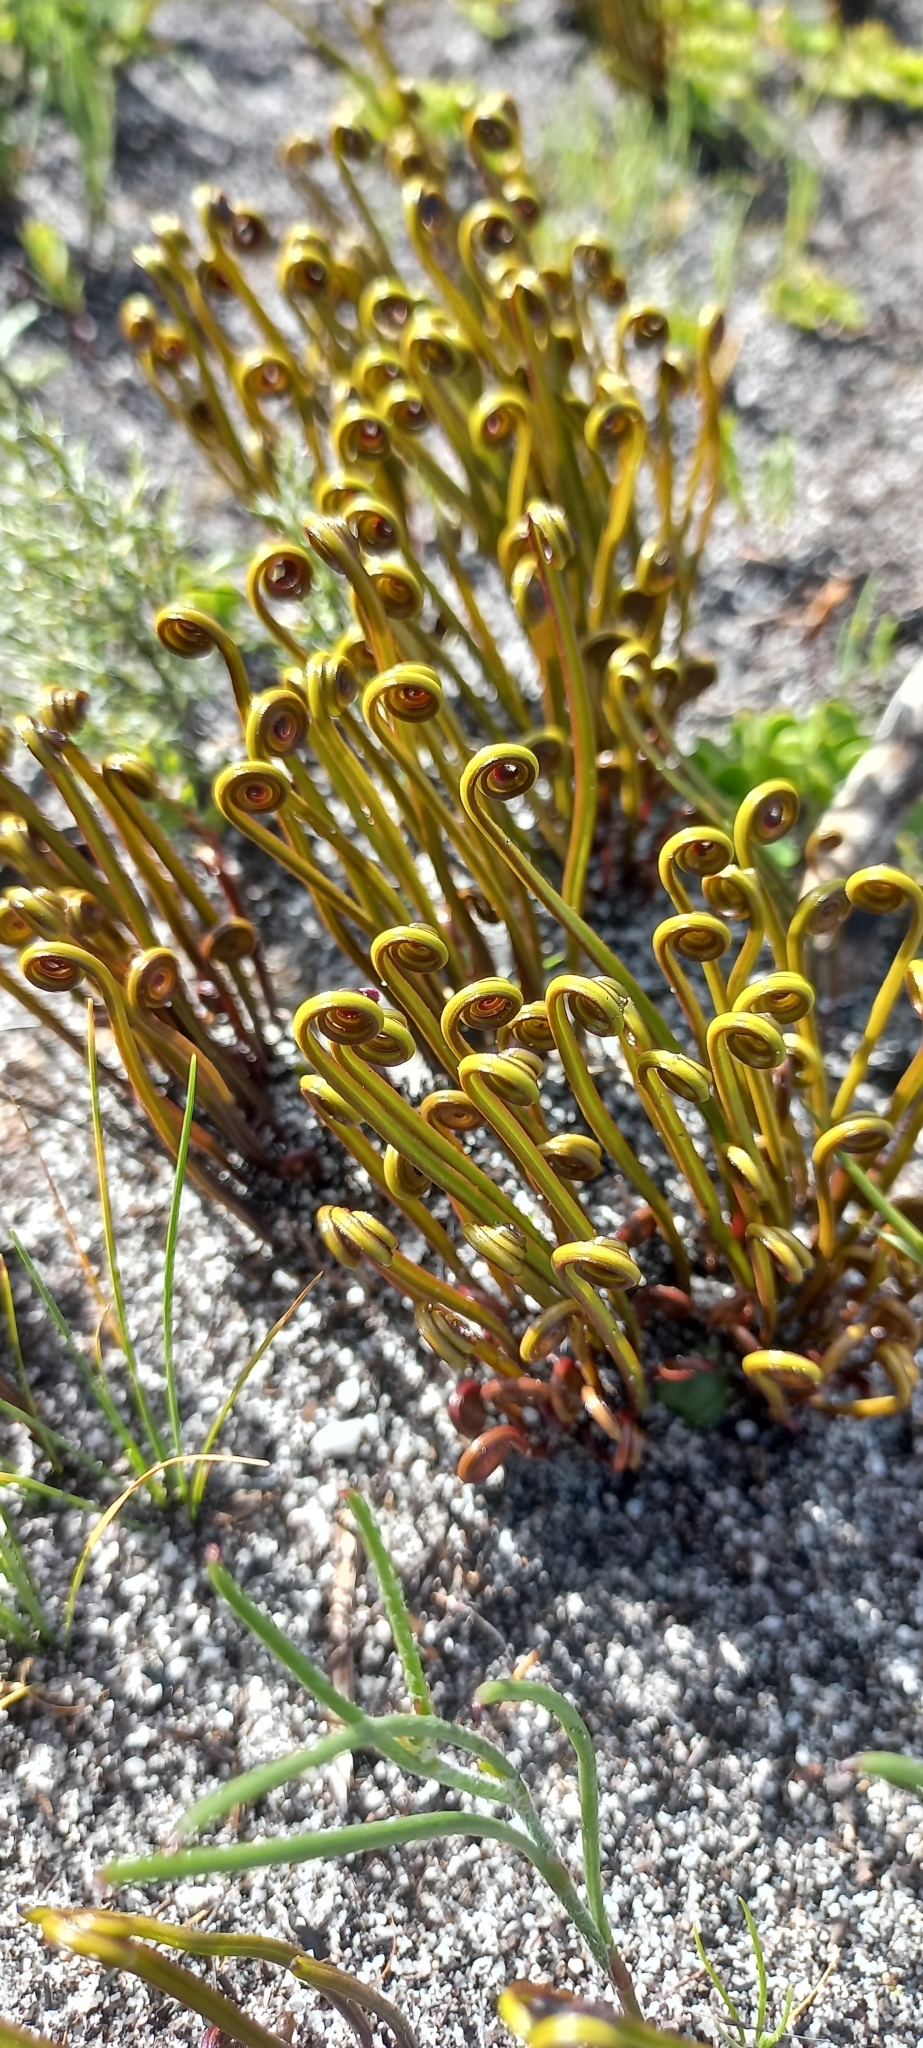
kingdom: Plantae
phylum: Tracheophyta
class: Polypodiopsida
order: Schizaeales
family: Schizaeaceae
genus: Schizaea
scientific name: Schizaea pectinata
